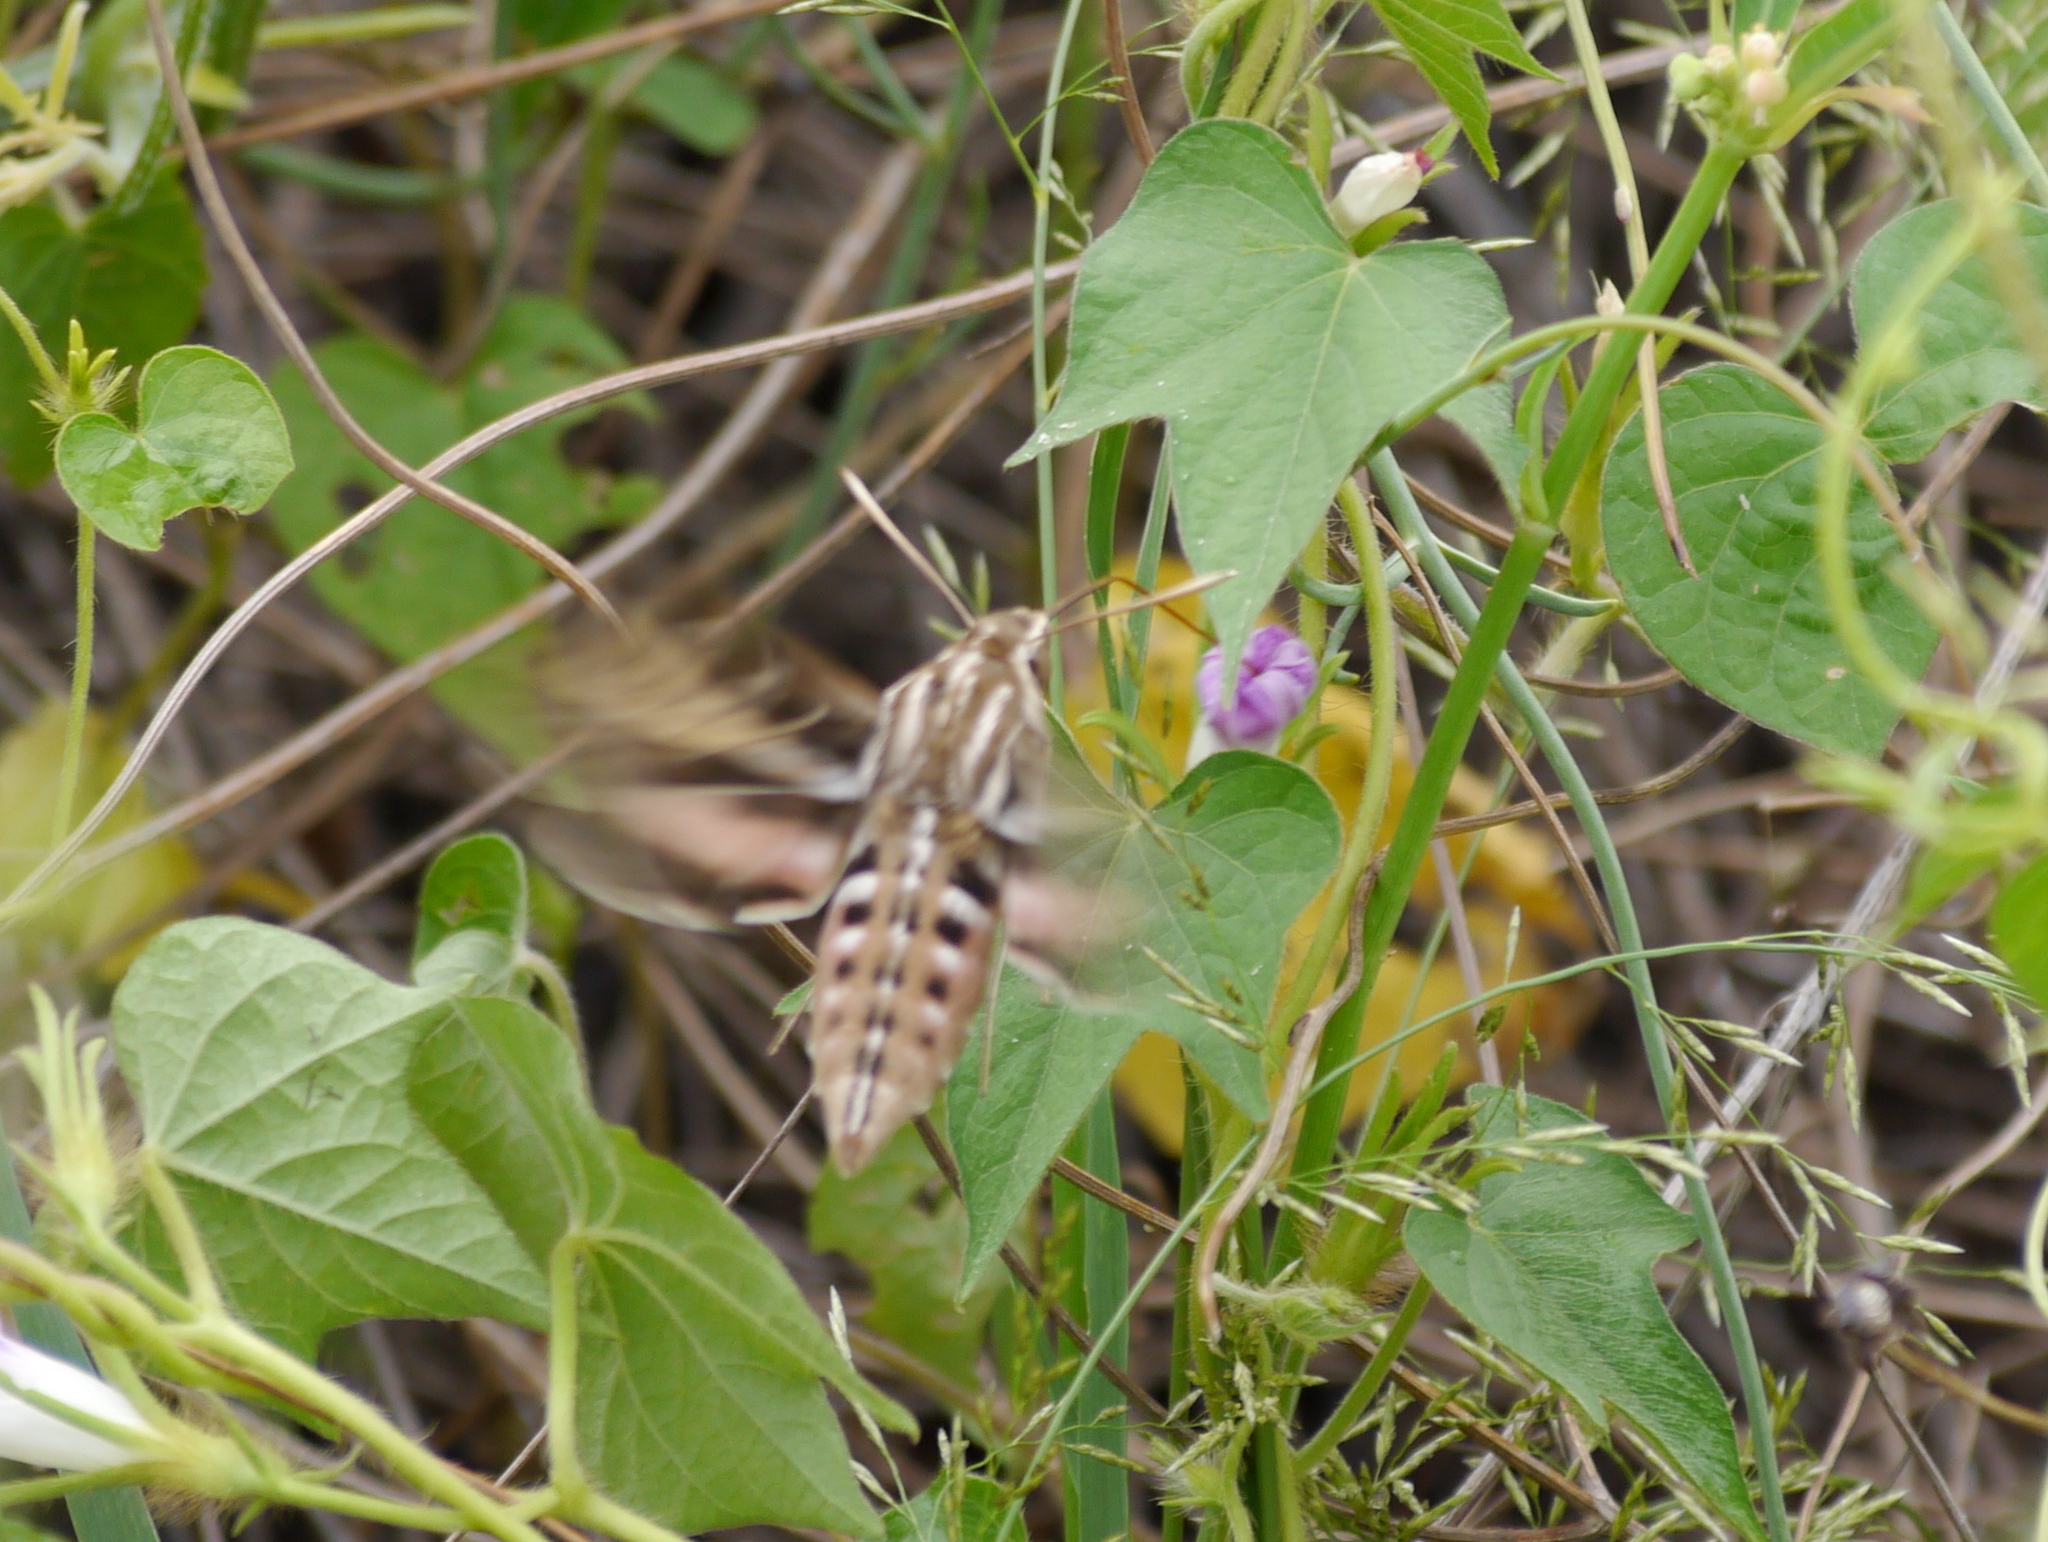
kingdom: Animalia
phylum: Arthropoda
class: Insecta
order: Lepidoptera
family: Sphingidae
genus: Hyles
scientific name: Hyles lineata
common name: White-lined sphinx
